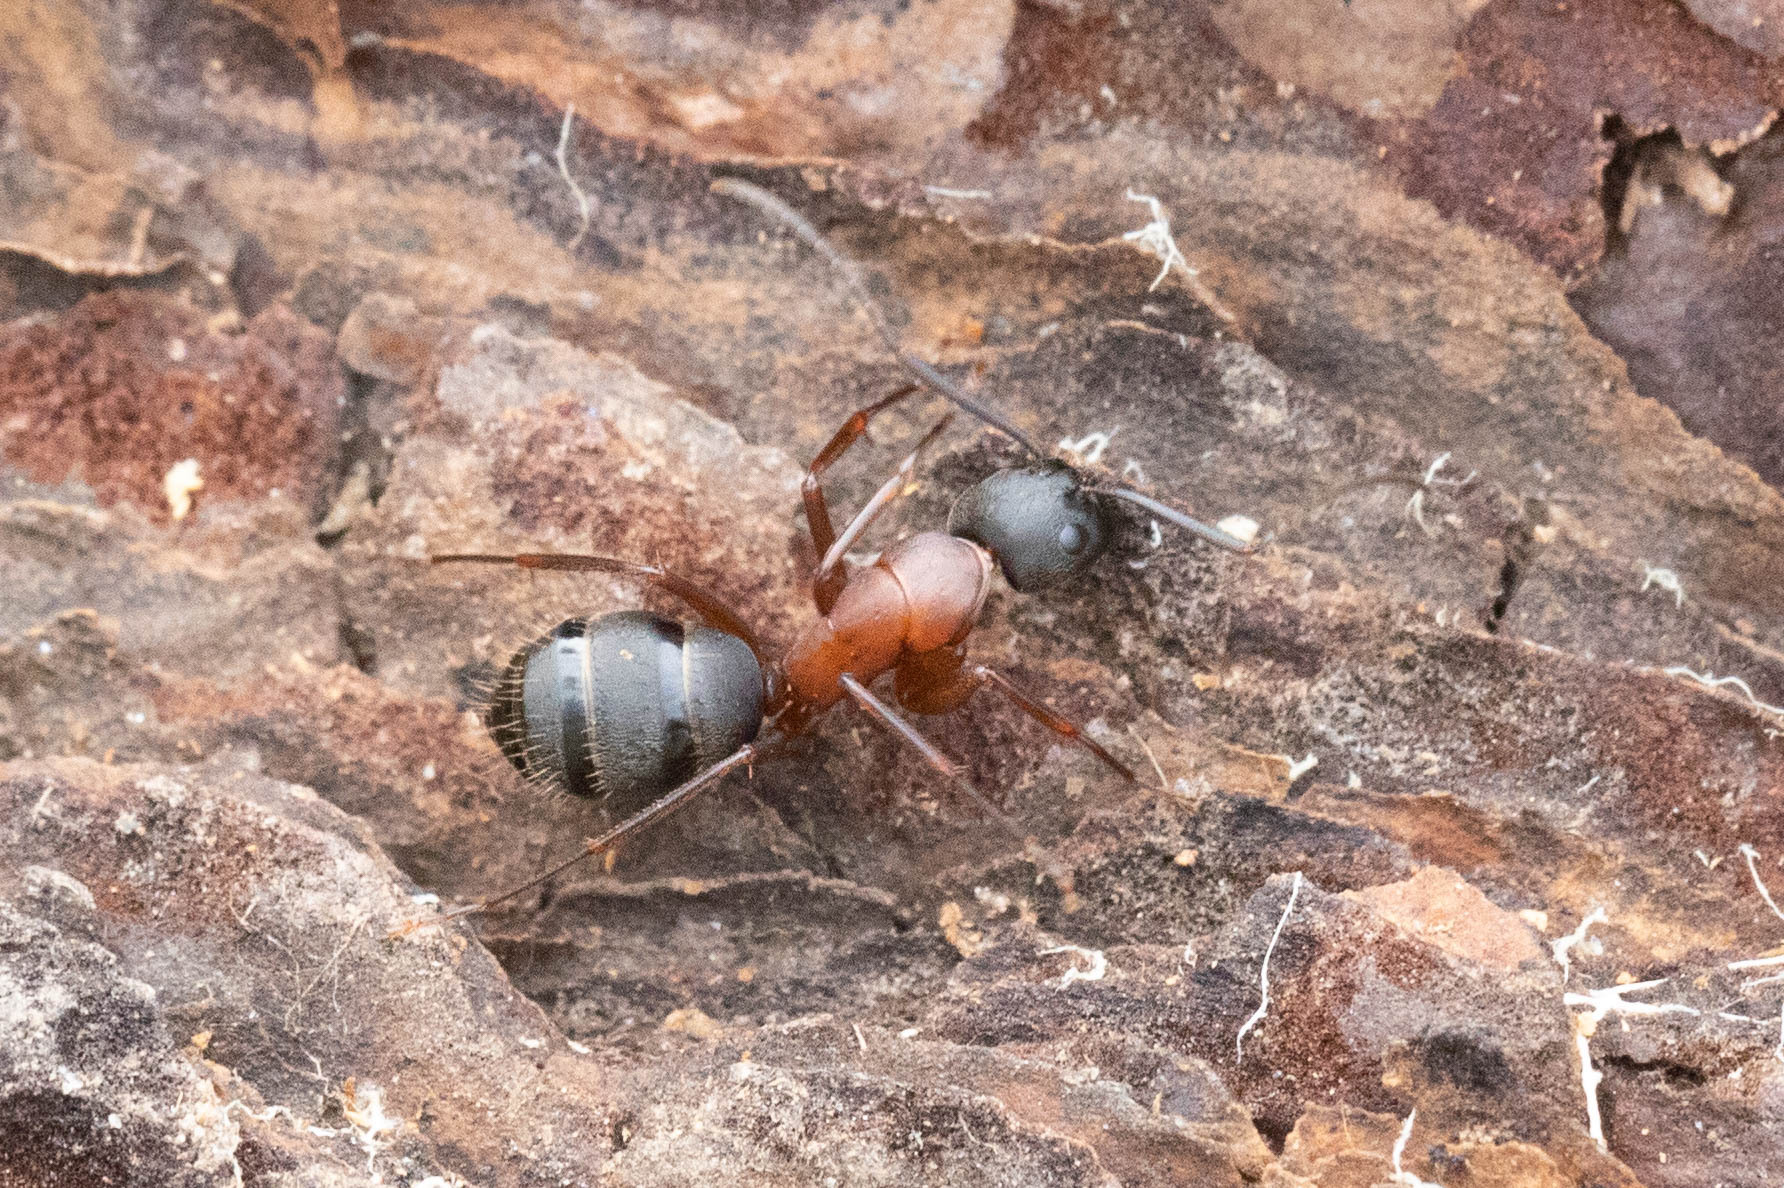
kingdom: Animalia
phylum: Arthropoda
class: Insecta
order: Hymenoptera
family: Formicidae
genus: Camponotus
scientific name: Camponotus vicinus
